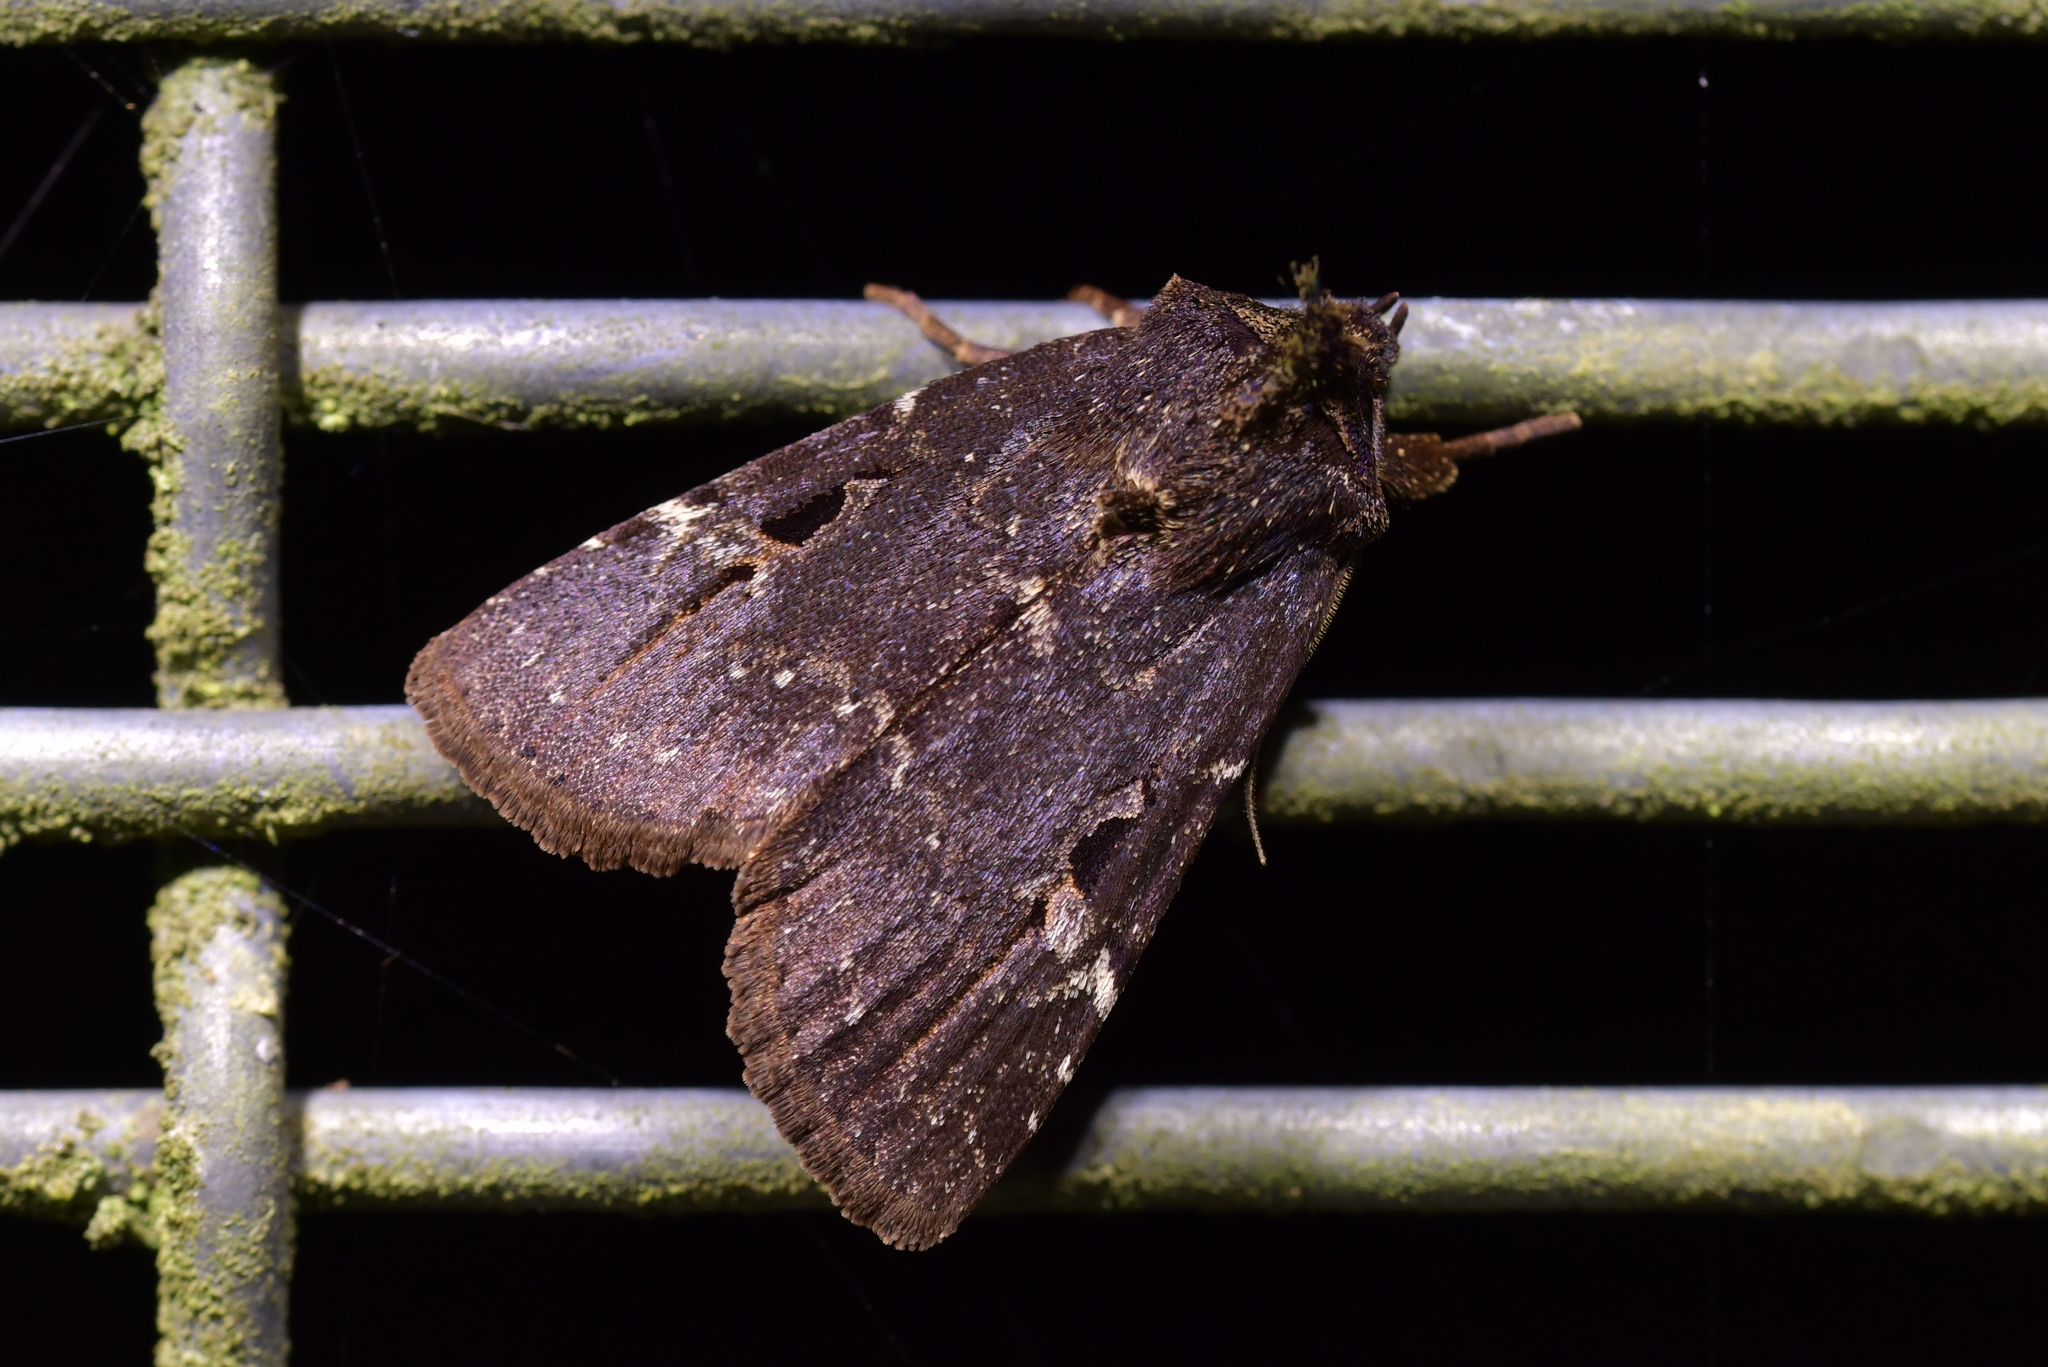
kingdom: Animalia
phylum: Arthropoda
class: Insecta
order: Lepidoptera
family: Noctuidae
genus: Austramathes
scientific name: Austramathes purpurea
